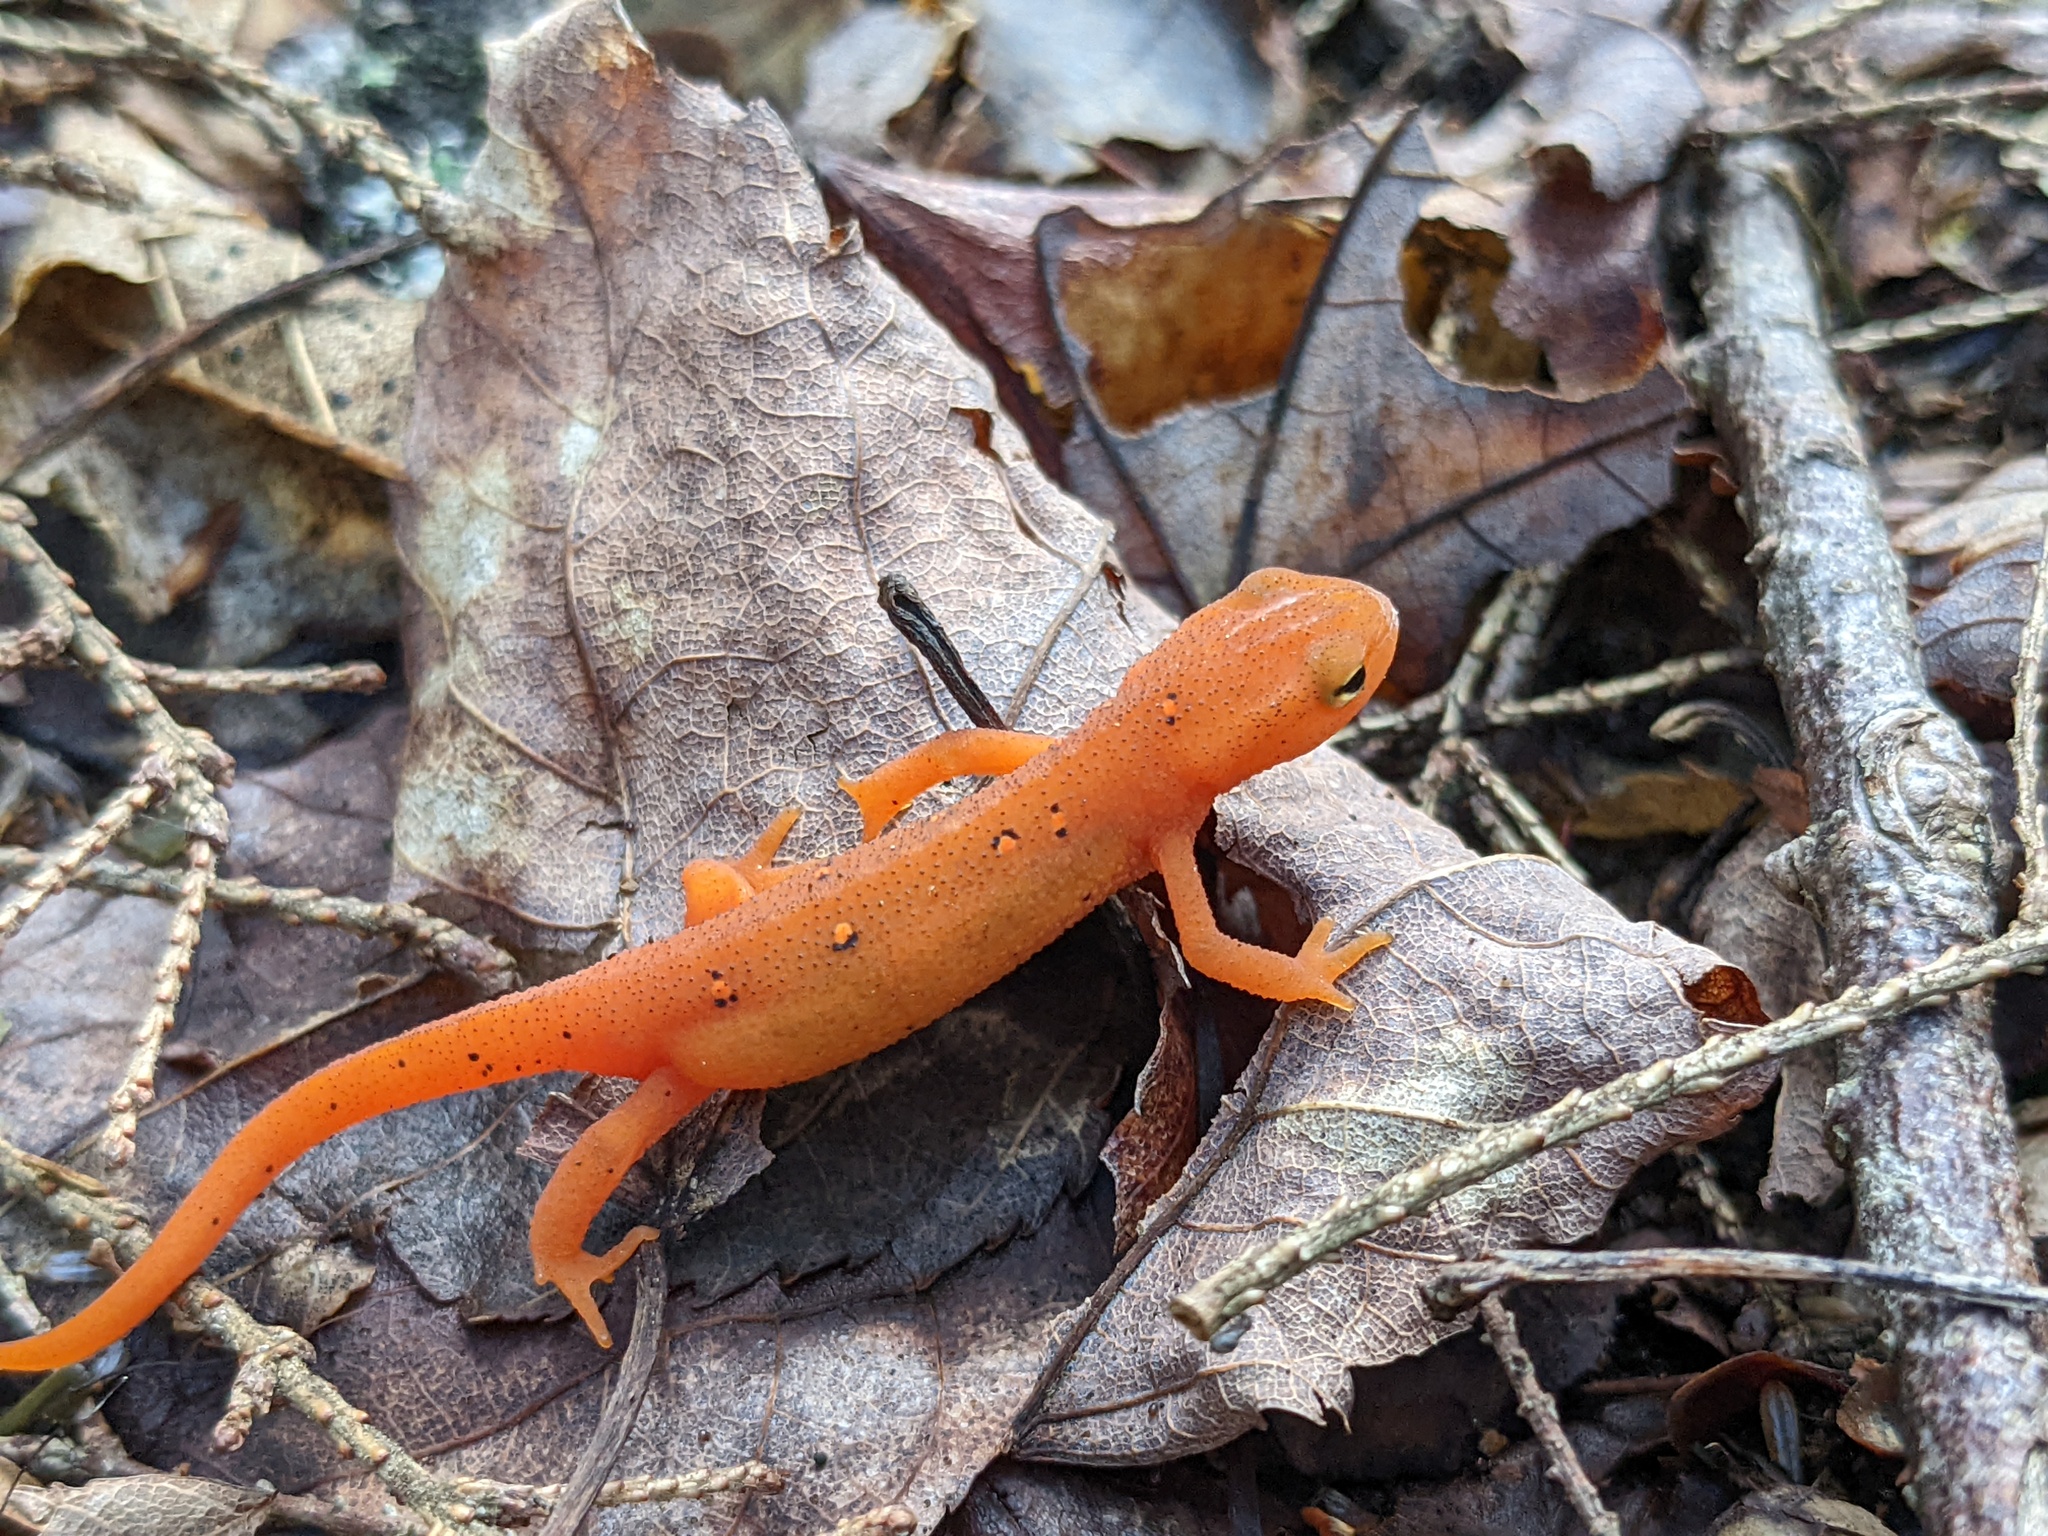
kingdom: Animalia
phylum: Chordata
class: Amphibia
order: Caudata
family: Salamandridae
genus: Notophthalmus
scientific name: Notophthalmus viridescens
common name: Eastern newt
